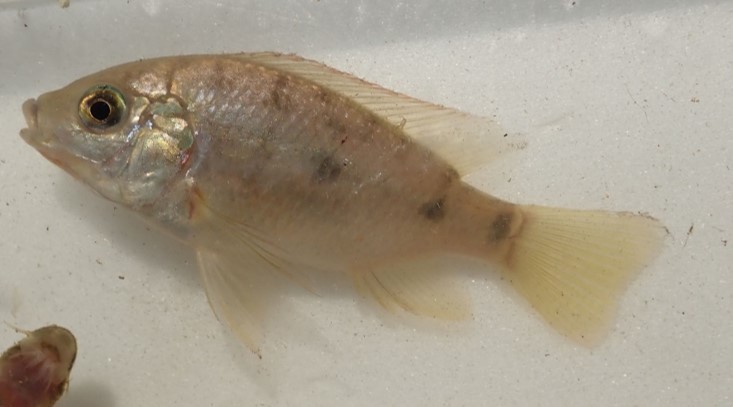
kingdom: Animalia
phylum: Chordata
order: Perciformes
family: Cichlidae
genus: Oreochromis
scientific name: Oreochromis mossambicus
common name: Mozambique tilapia
